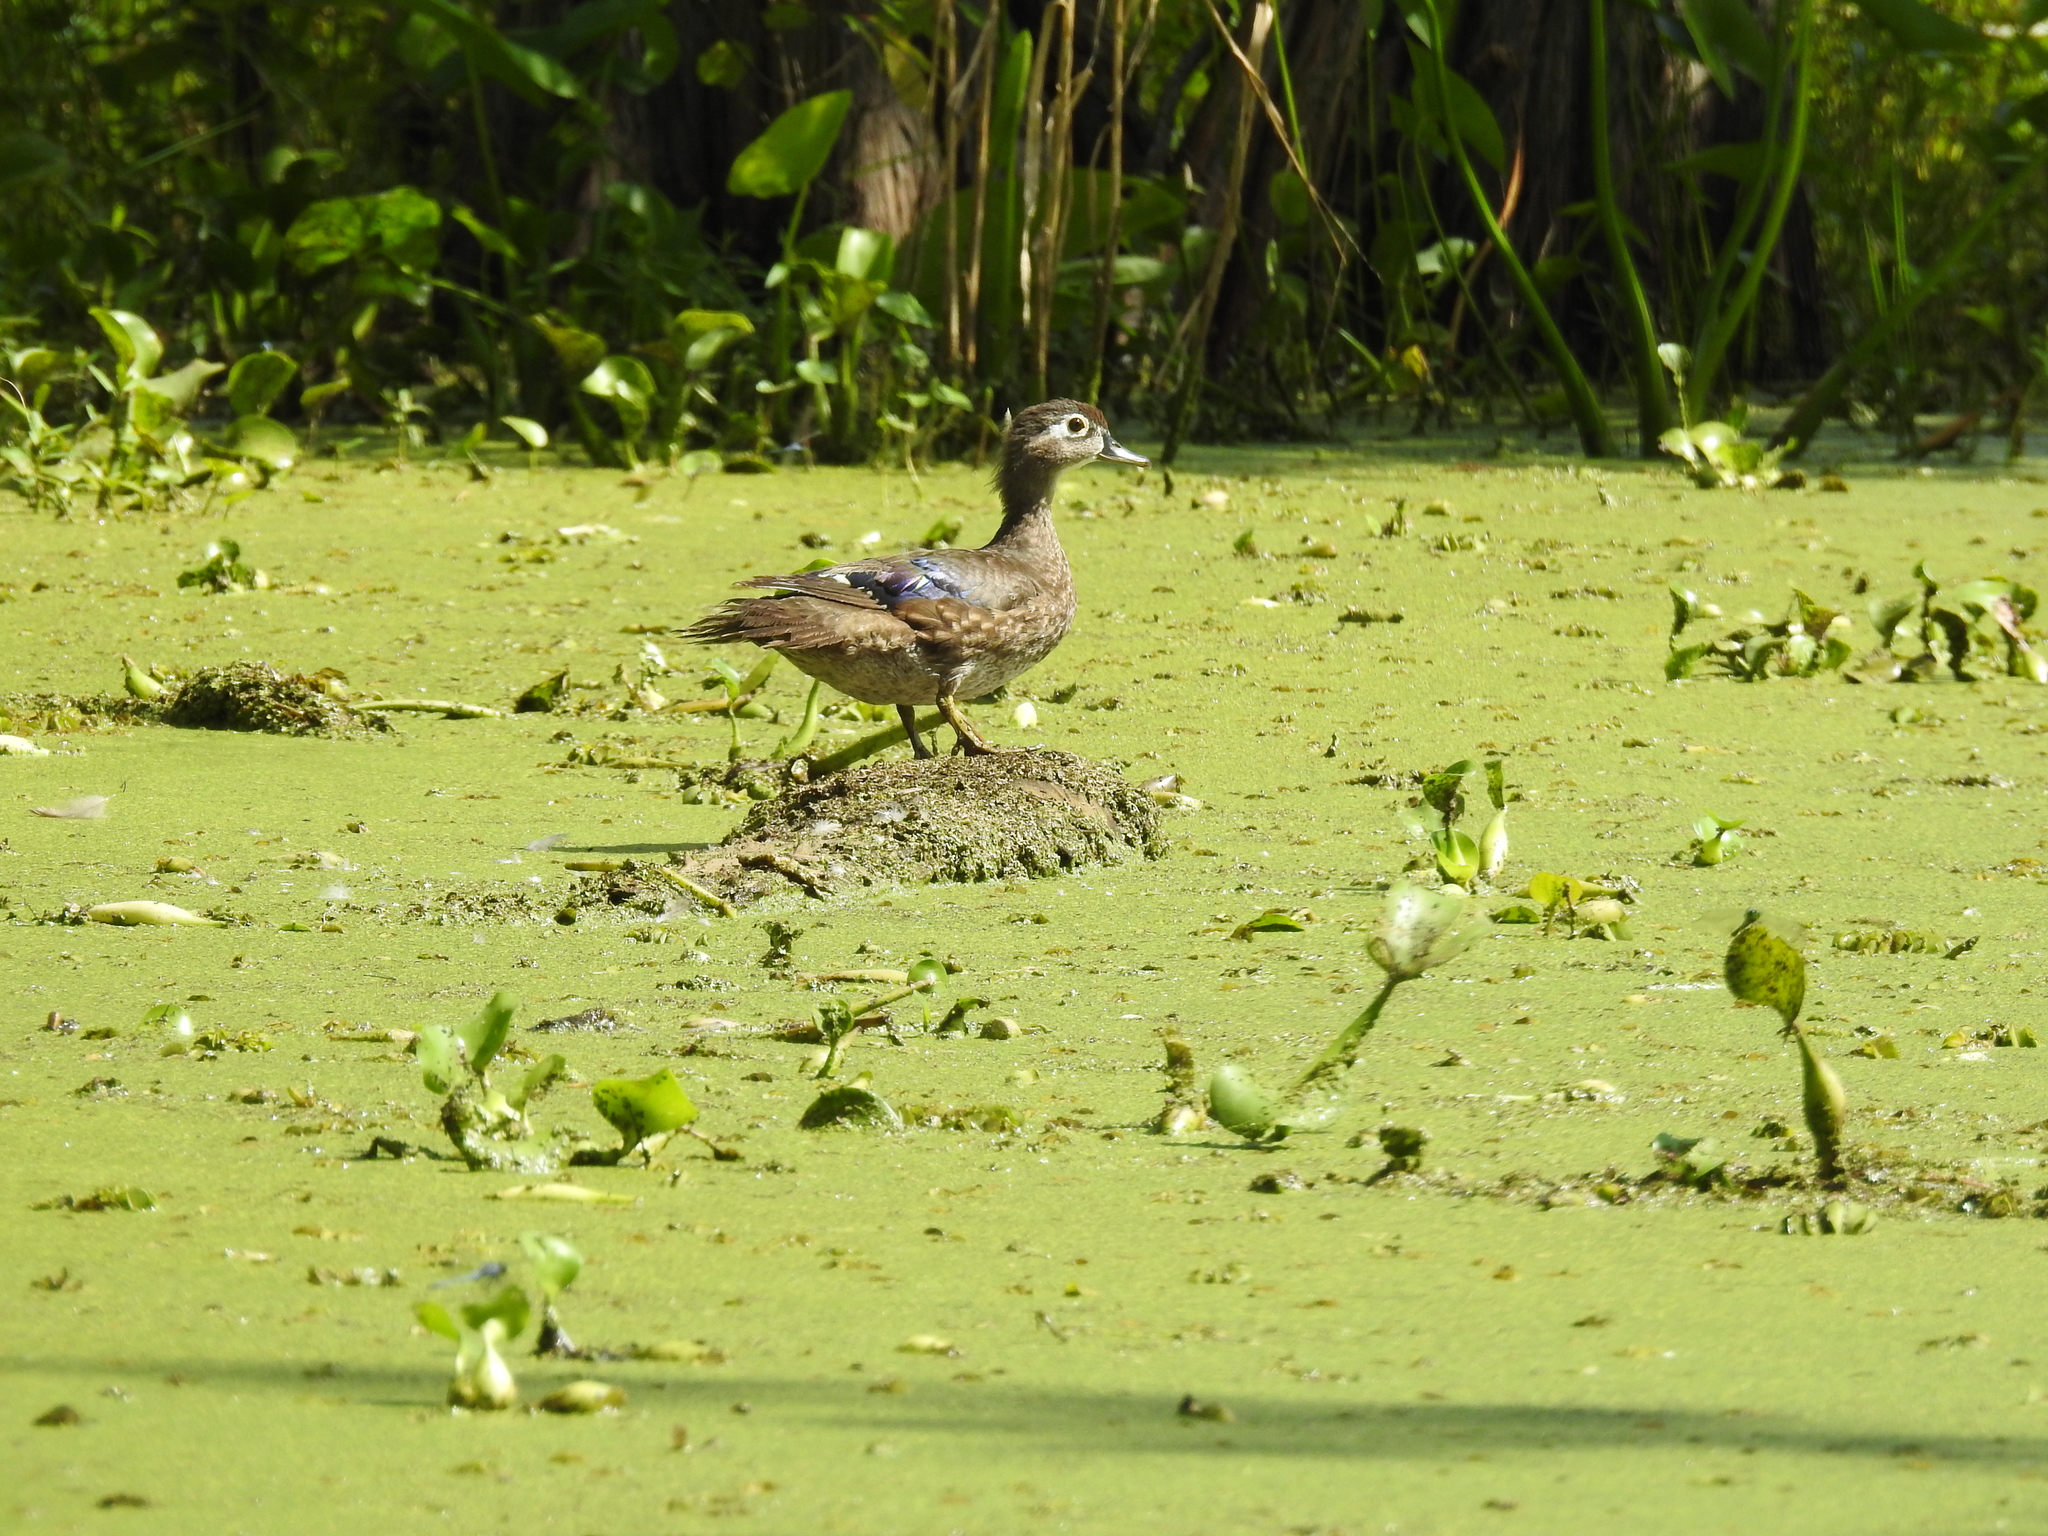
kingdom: Animalia
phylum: Chordata
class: Aves
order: Anseriformes
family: Anatidae
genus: Aix
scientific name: Aix sponsa
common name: Wood duck
